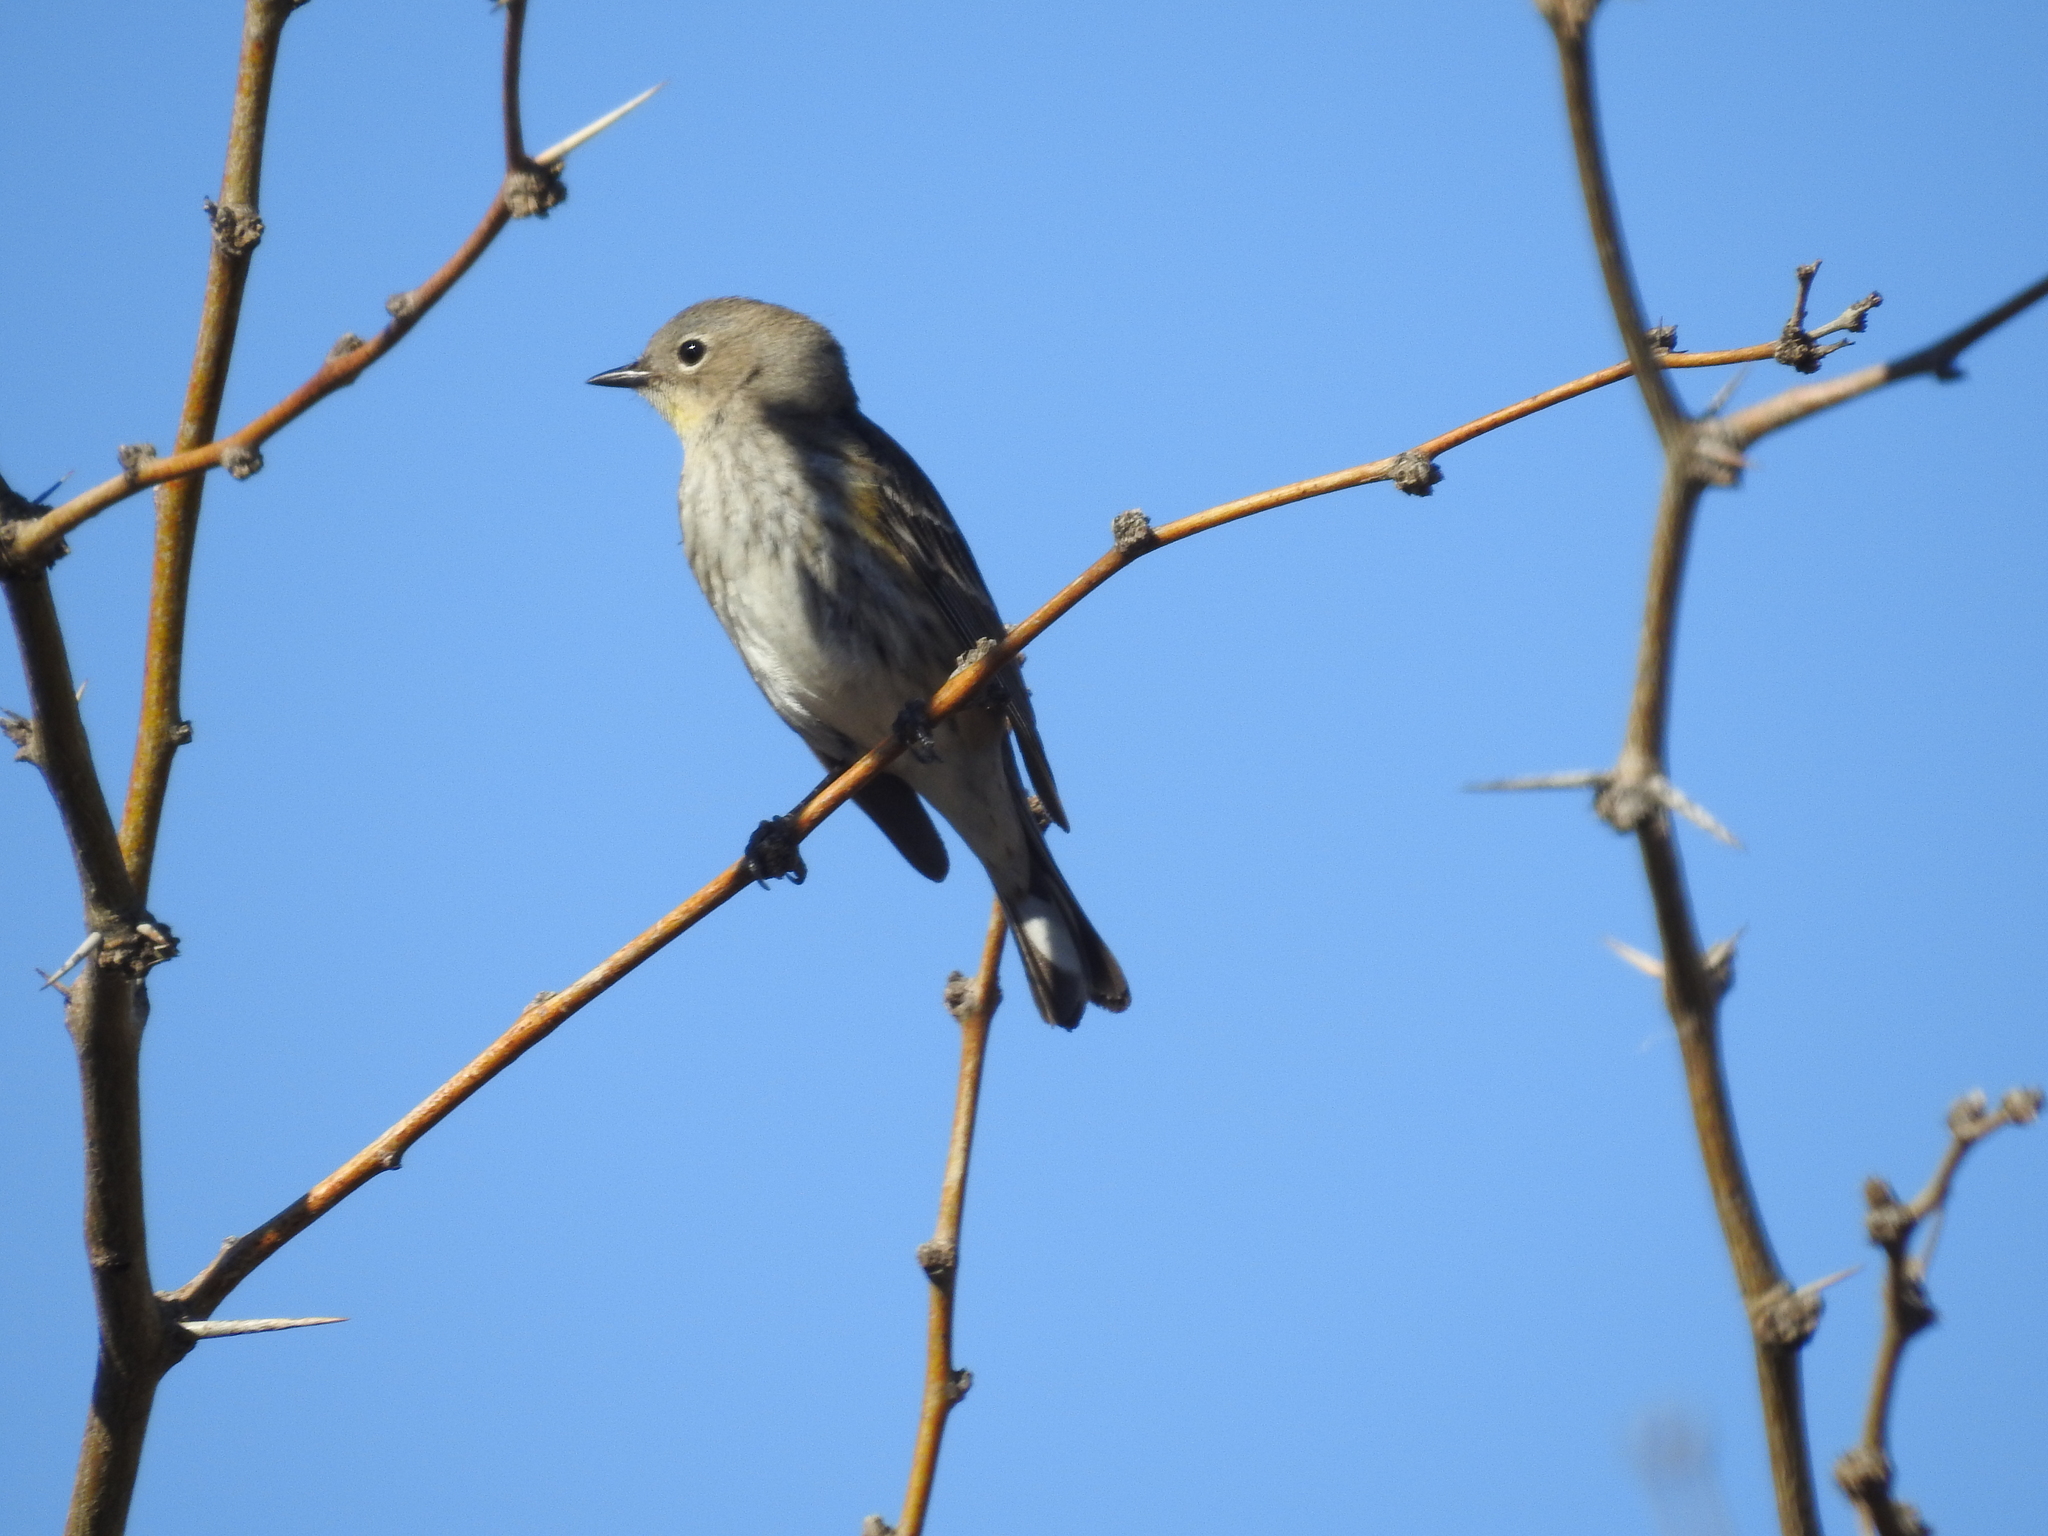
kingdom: Animalia
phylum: Chordata
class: Aves
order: Passeriformes
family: Parulidae
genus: Setophaga
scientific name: Setophaga coronata
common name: Myrtle warbler
